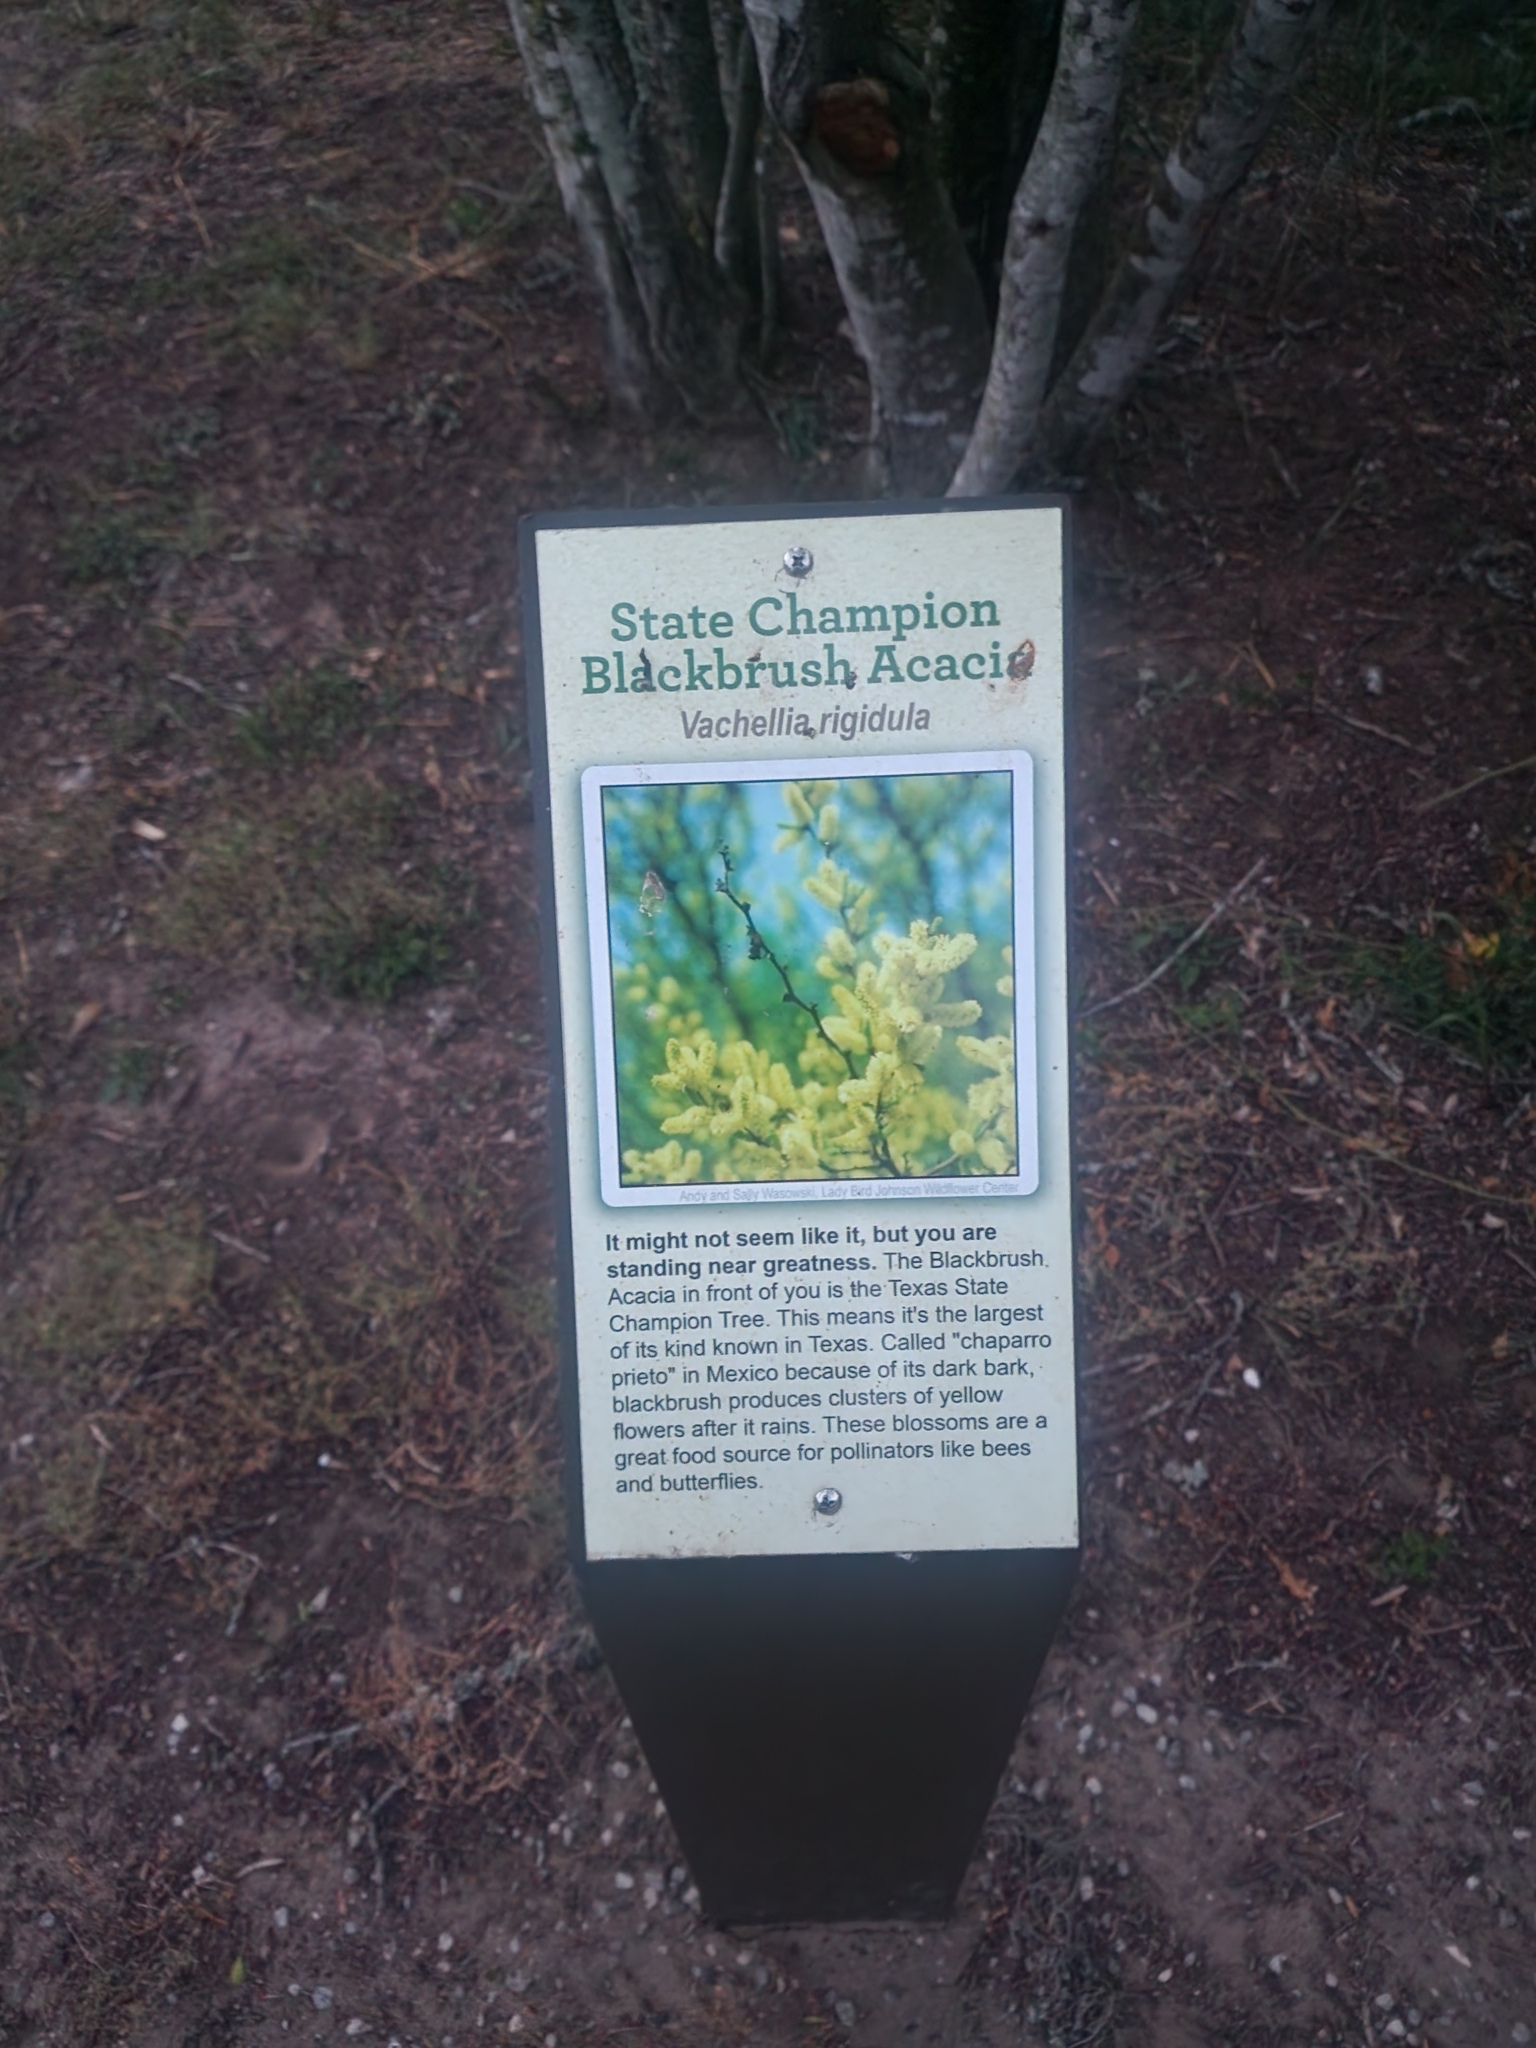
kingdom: Plantae
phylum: Tracheophyta
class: Magnoliopsida
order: Fabales
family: Fabaceae
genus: Vachellia
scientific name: Vachellia rigidula
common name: Blackbrush
